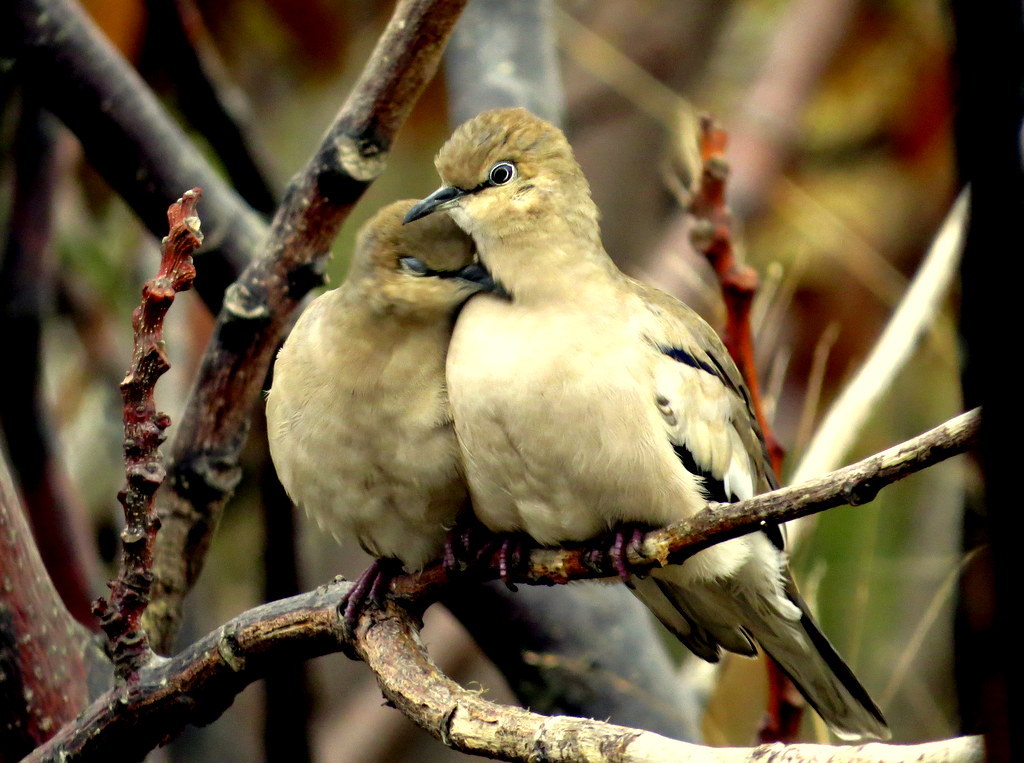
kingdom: Animalia
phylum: Chordata
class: Aves
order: Columbiformes
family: Columbidae
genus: Columbina
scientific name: Columbina picui
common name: Picui ground dove
